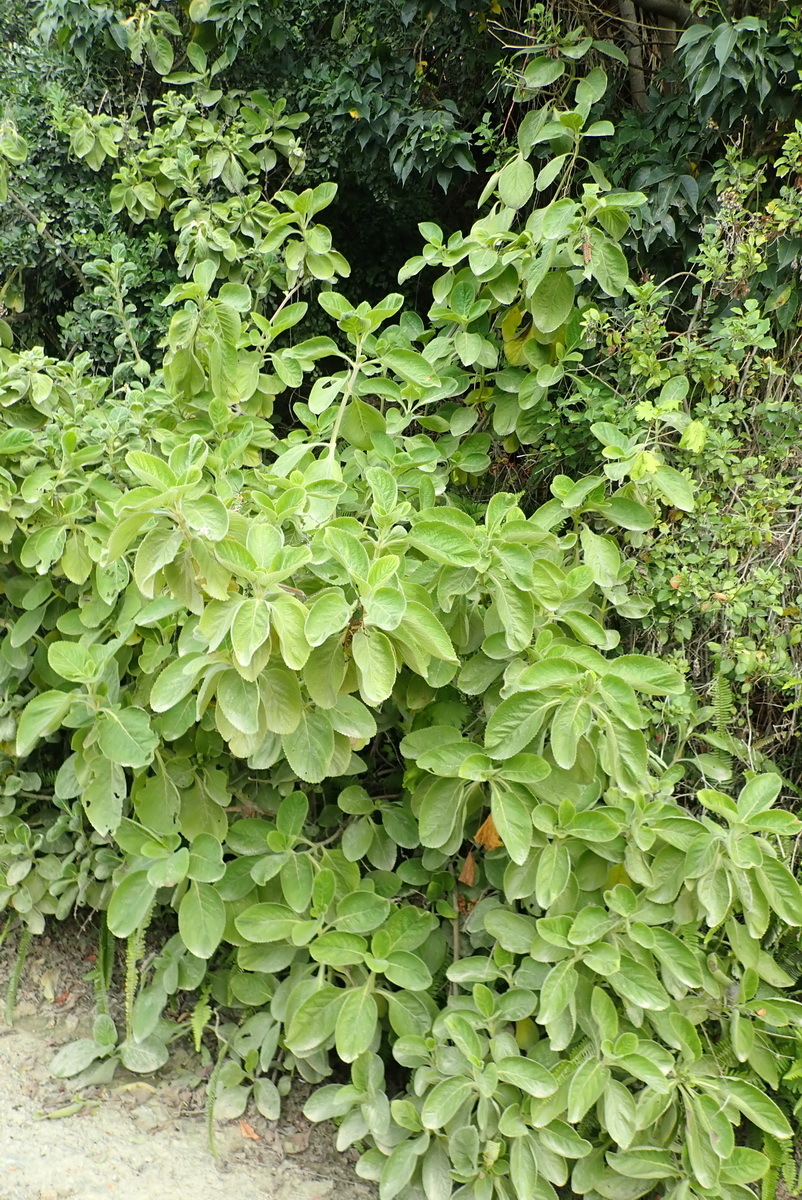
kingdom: Plantae
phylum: Tracheophyta
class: Magnoliopsida
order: Lamiales
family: Lamiaceae
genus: Coleus
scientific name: Coleus barbatus
